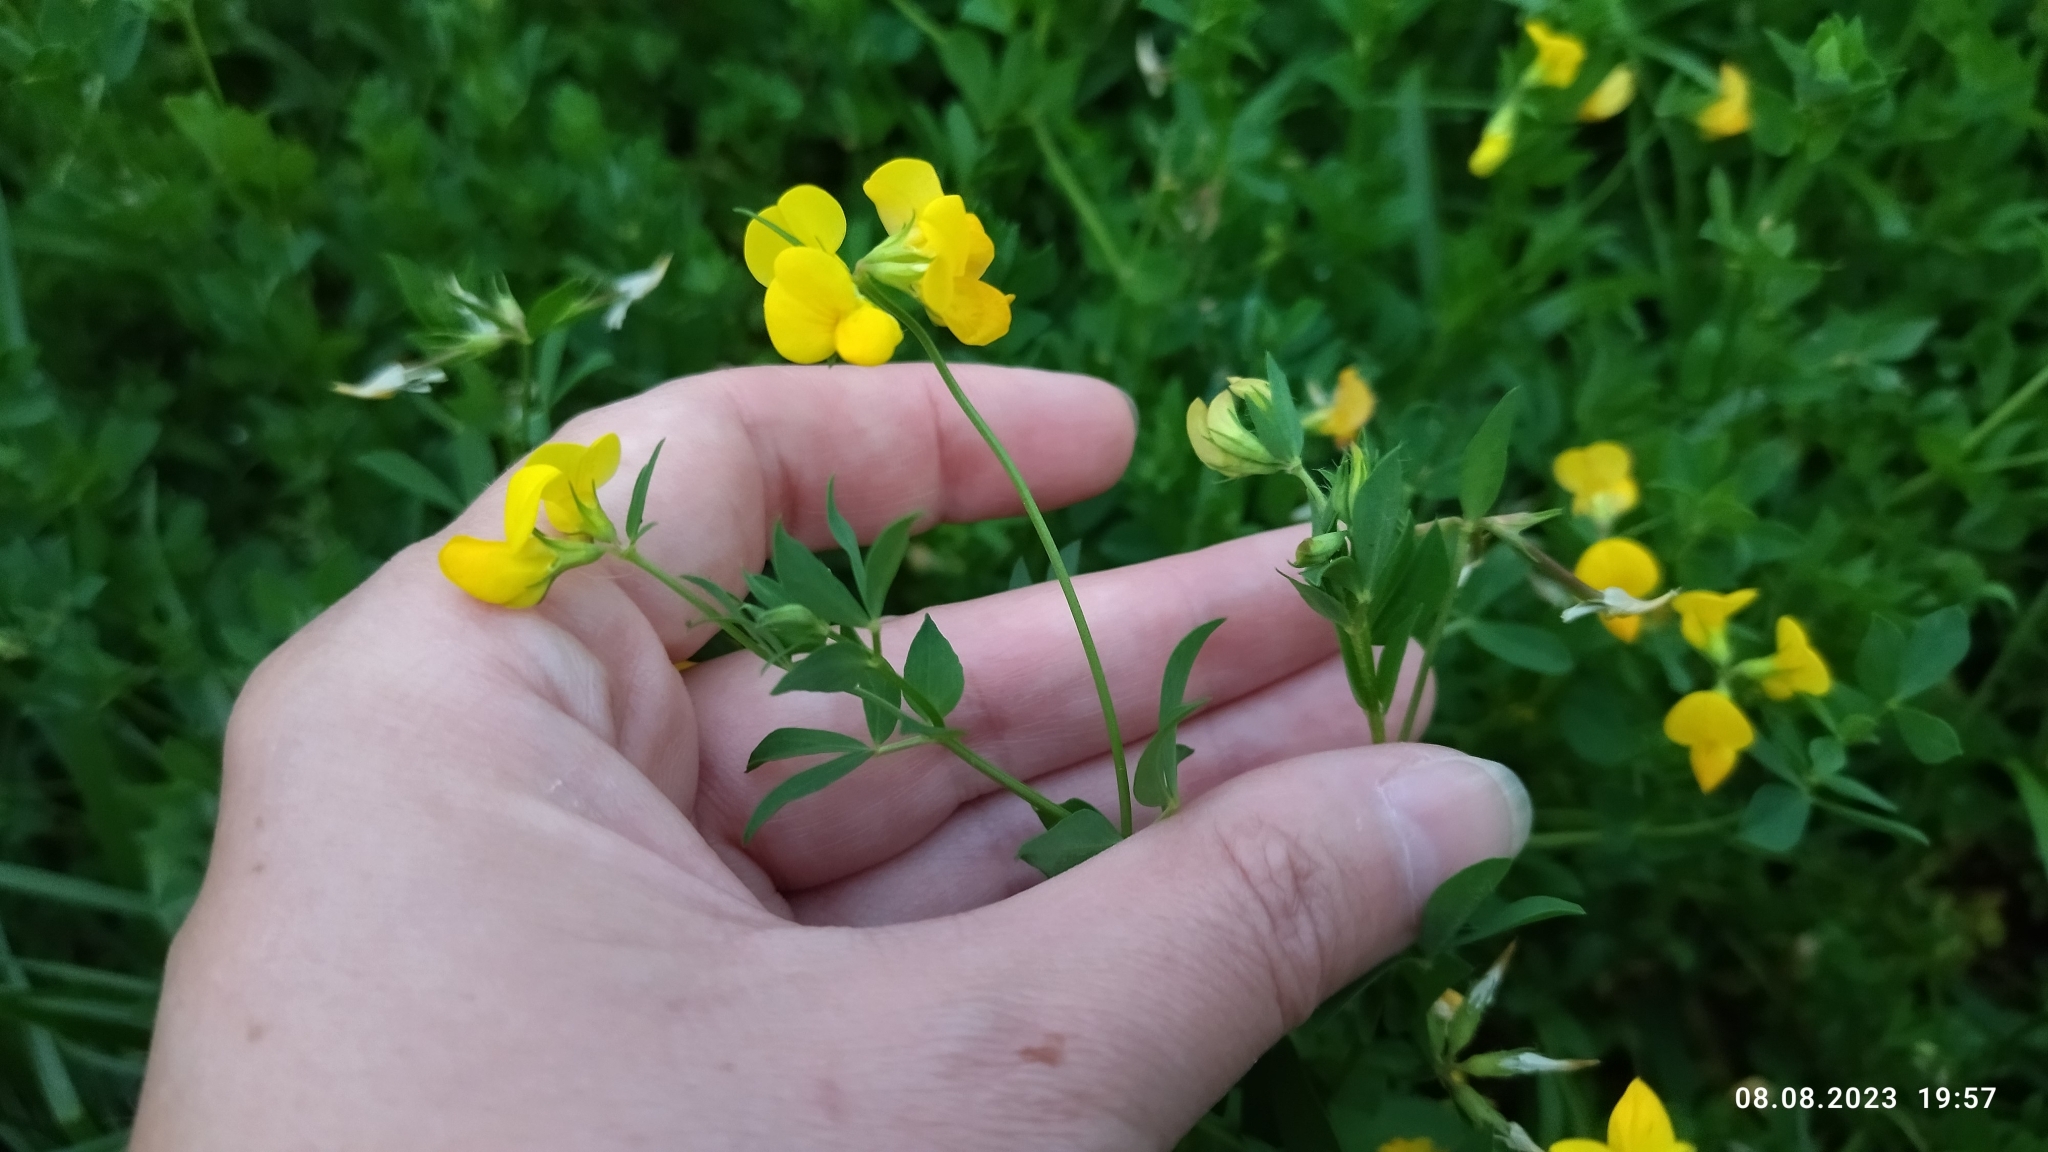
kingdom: Plantae
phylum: Tracheophyta
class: Magnoliopsida
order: Fabales
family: Fabaceae
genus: Lotus
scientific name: Lotus corniculatus
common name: Common bird's-foot-trefoil
